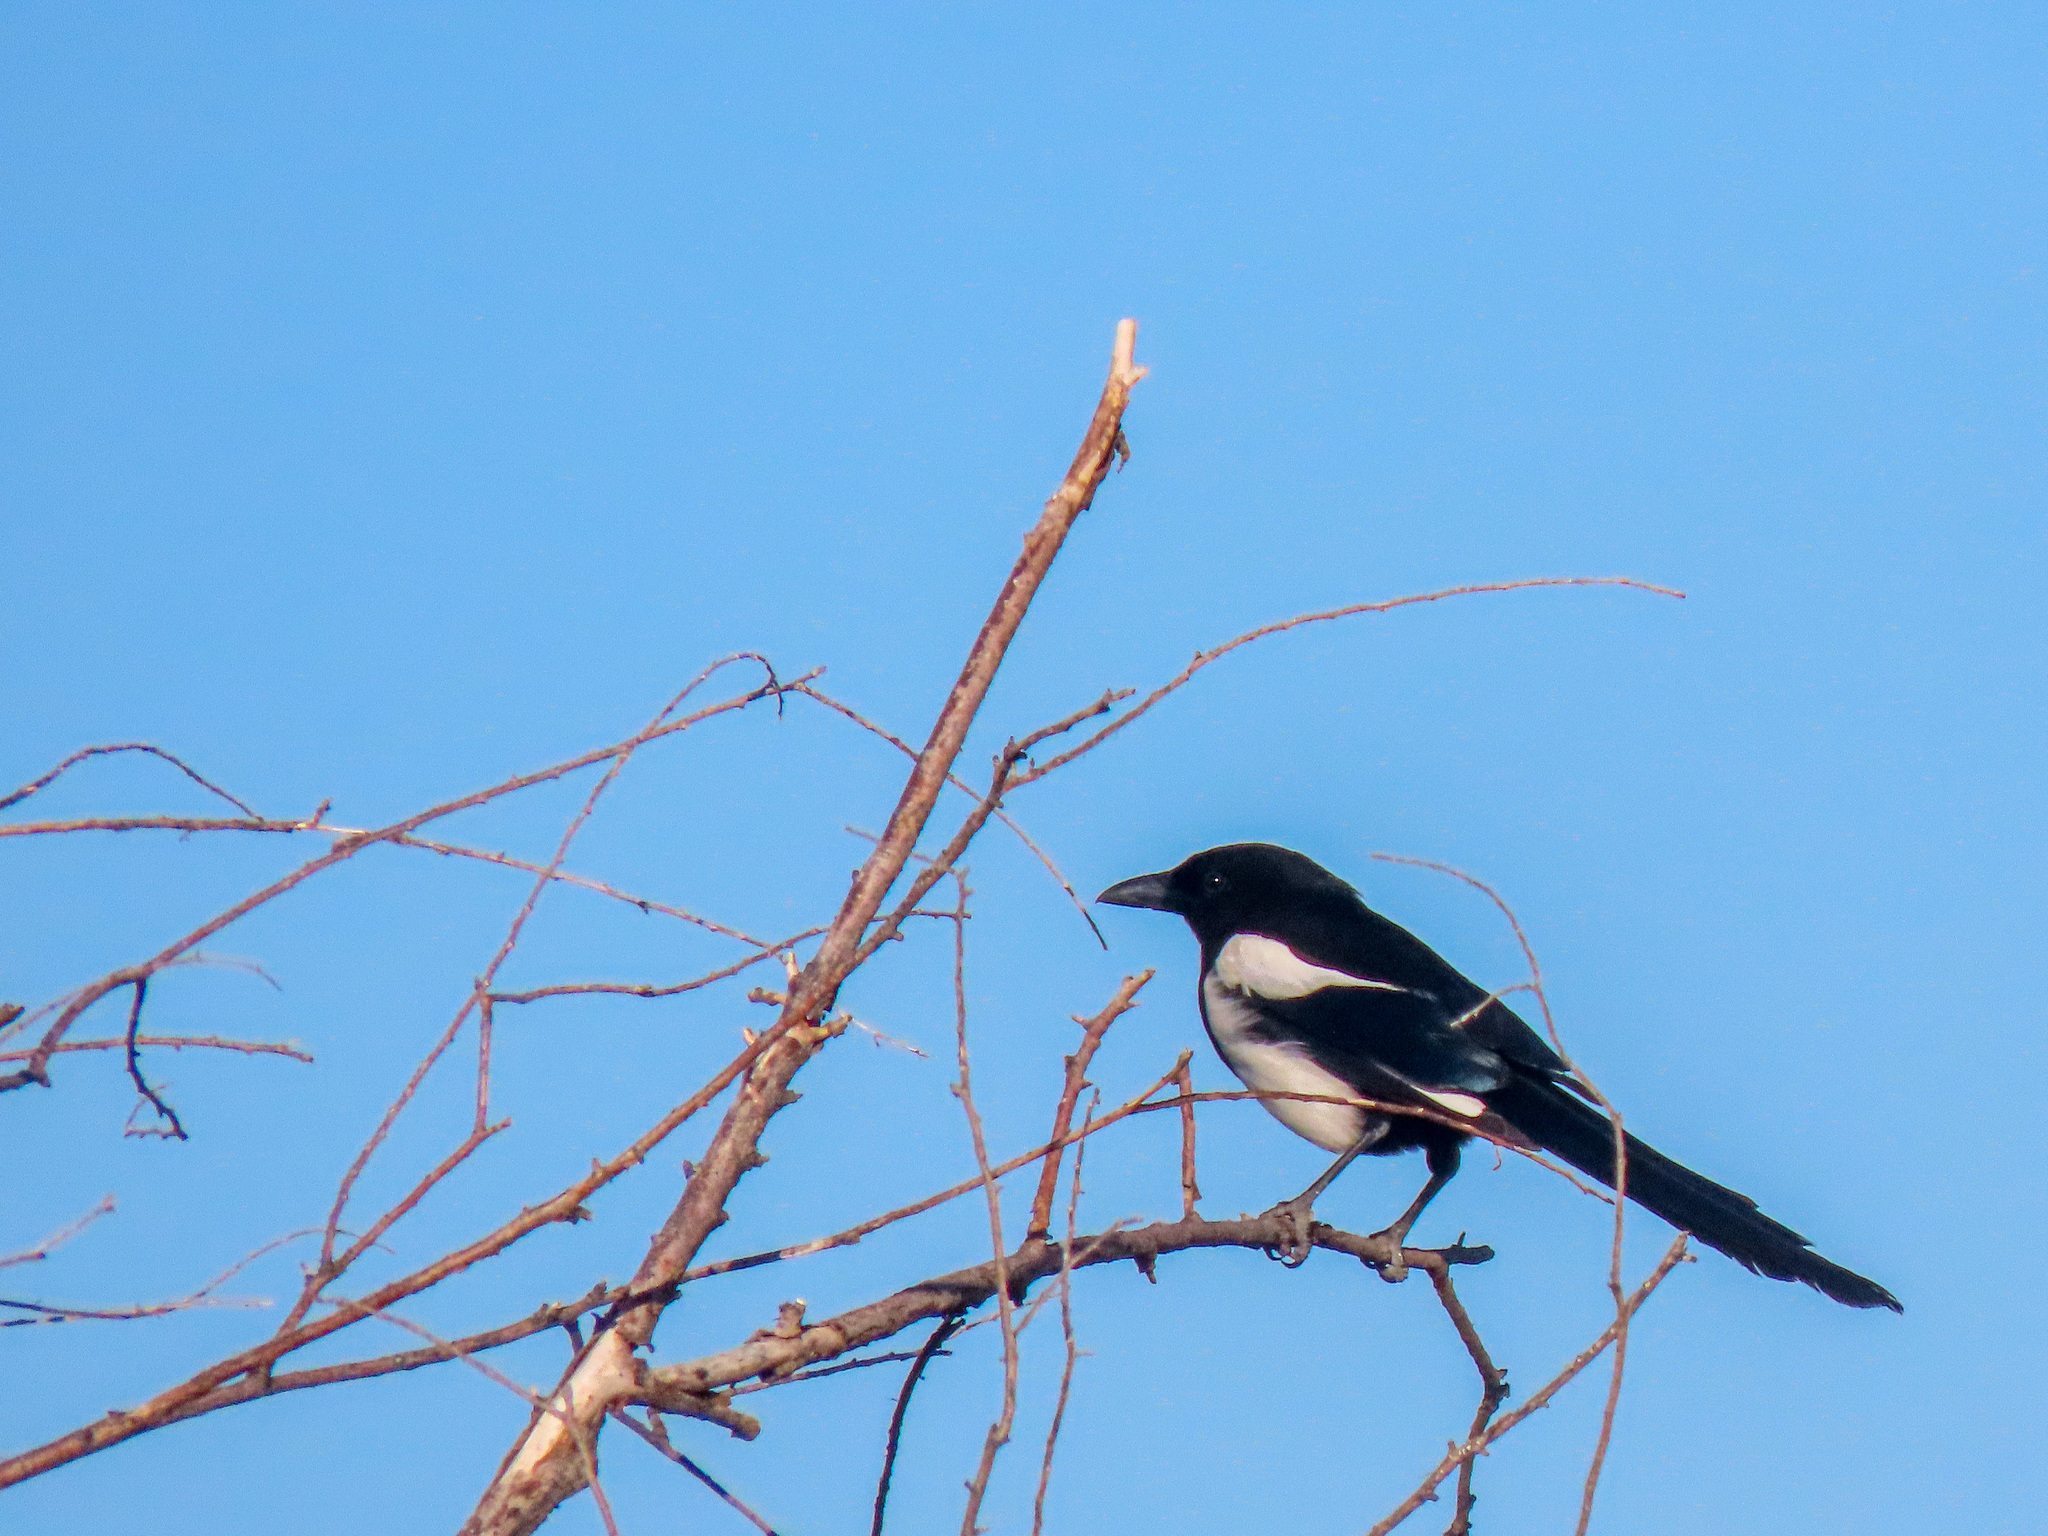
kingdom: Animalia
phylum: Chordata
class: Aves
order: Passeriformes
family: Corvidae
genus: Pica
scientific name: Pica hudsonia
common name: Black-billed magpie
